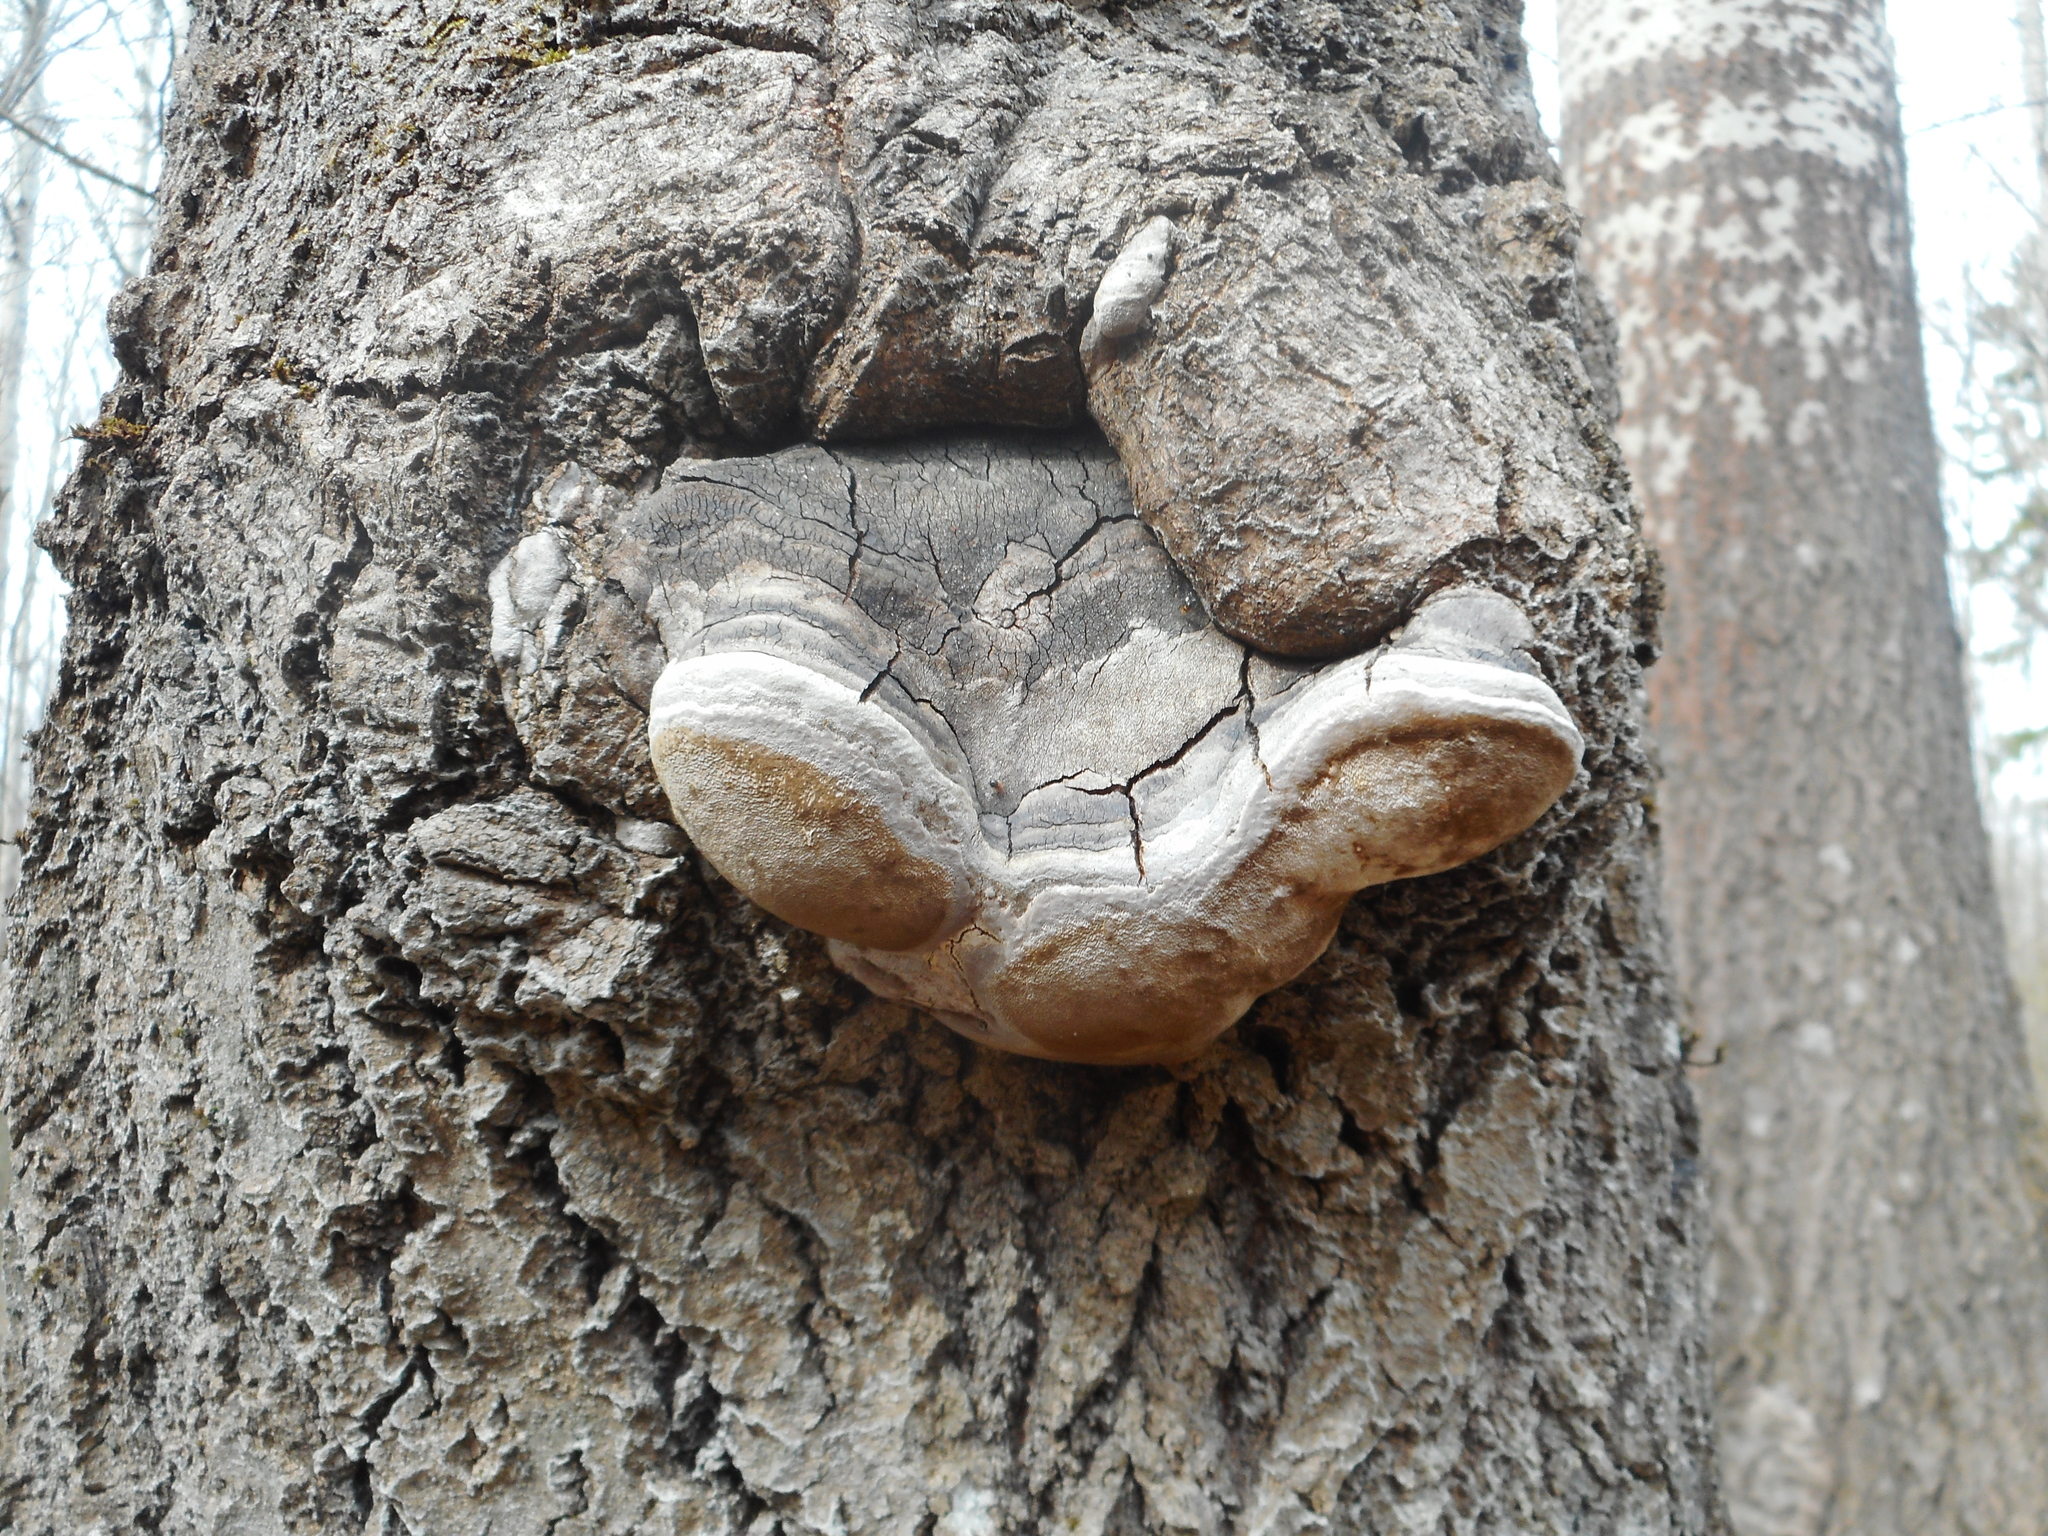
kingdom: Fungi
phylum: Basidiomycota
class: Agaricomycetes
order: Hymenochaetales
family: Hymenochaetaceae
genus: Phellinus
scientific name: Phellinus tremulae
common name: Aspen bracket
